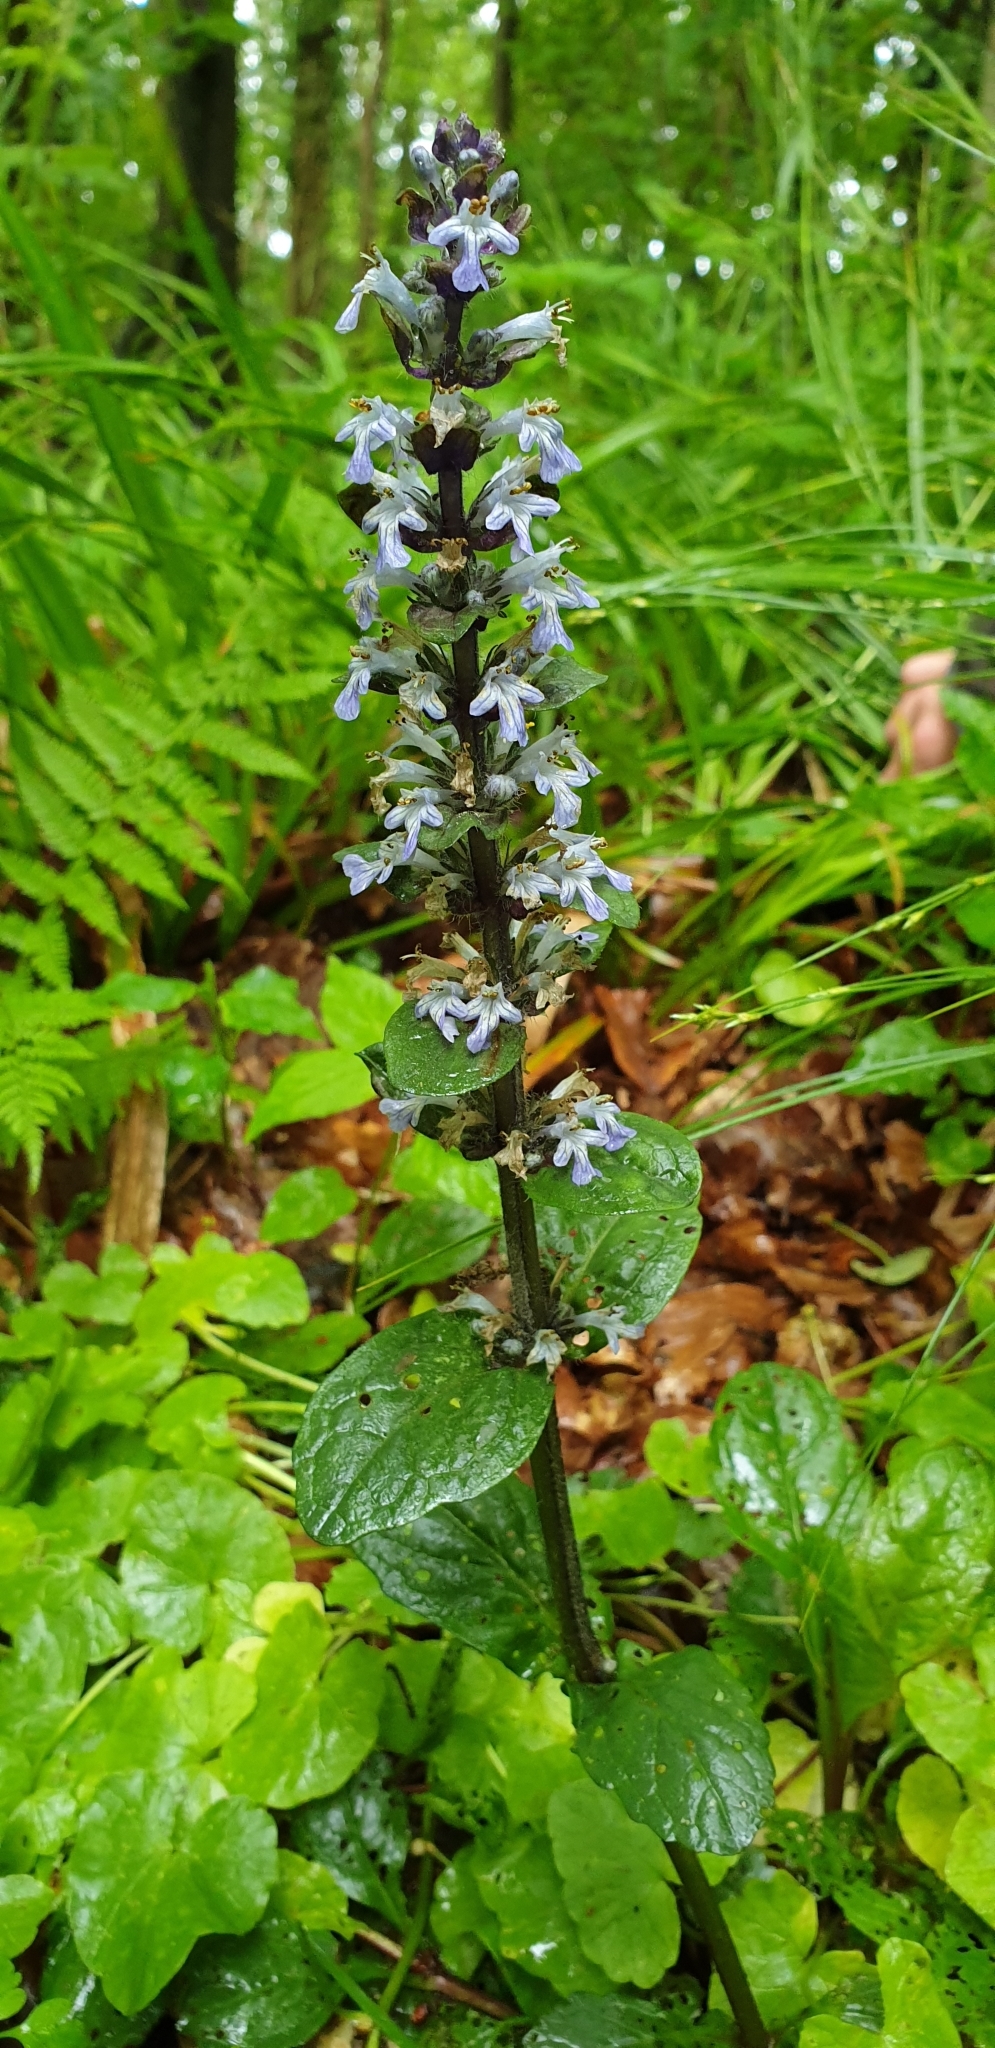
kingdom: Plantae
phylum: Tracheophyta
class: Magnoliopsida
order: Lamiales
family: Lamiaceae
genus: Ajuga
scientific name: Ajuga reptans
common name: Bugle
